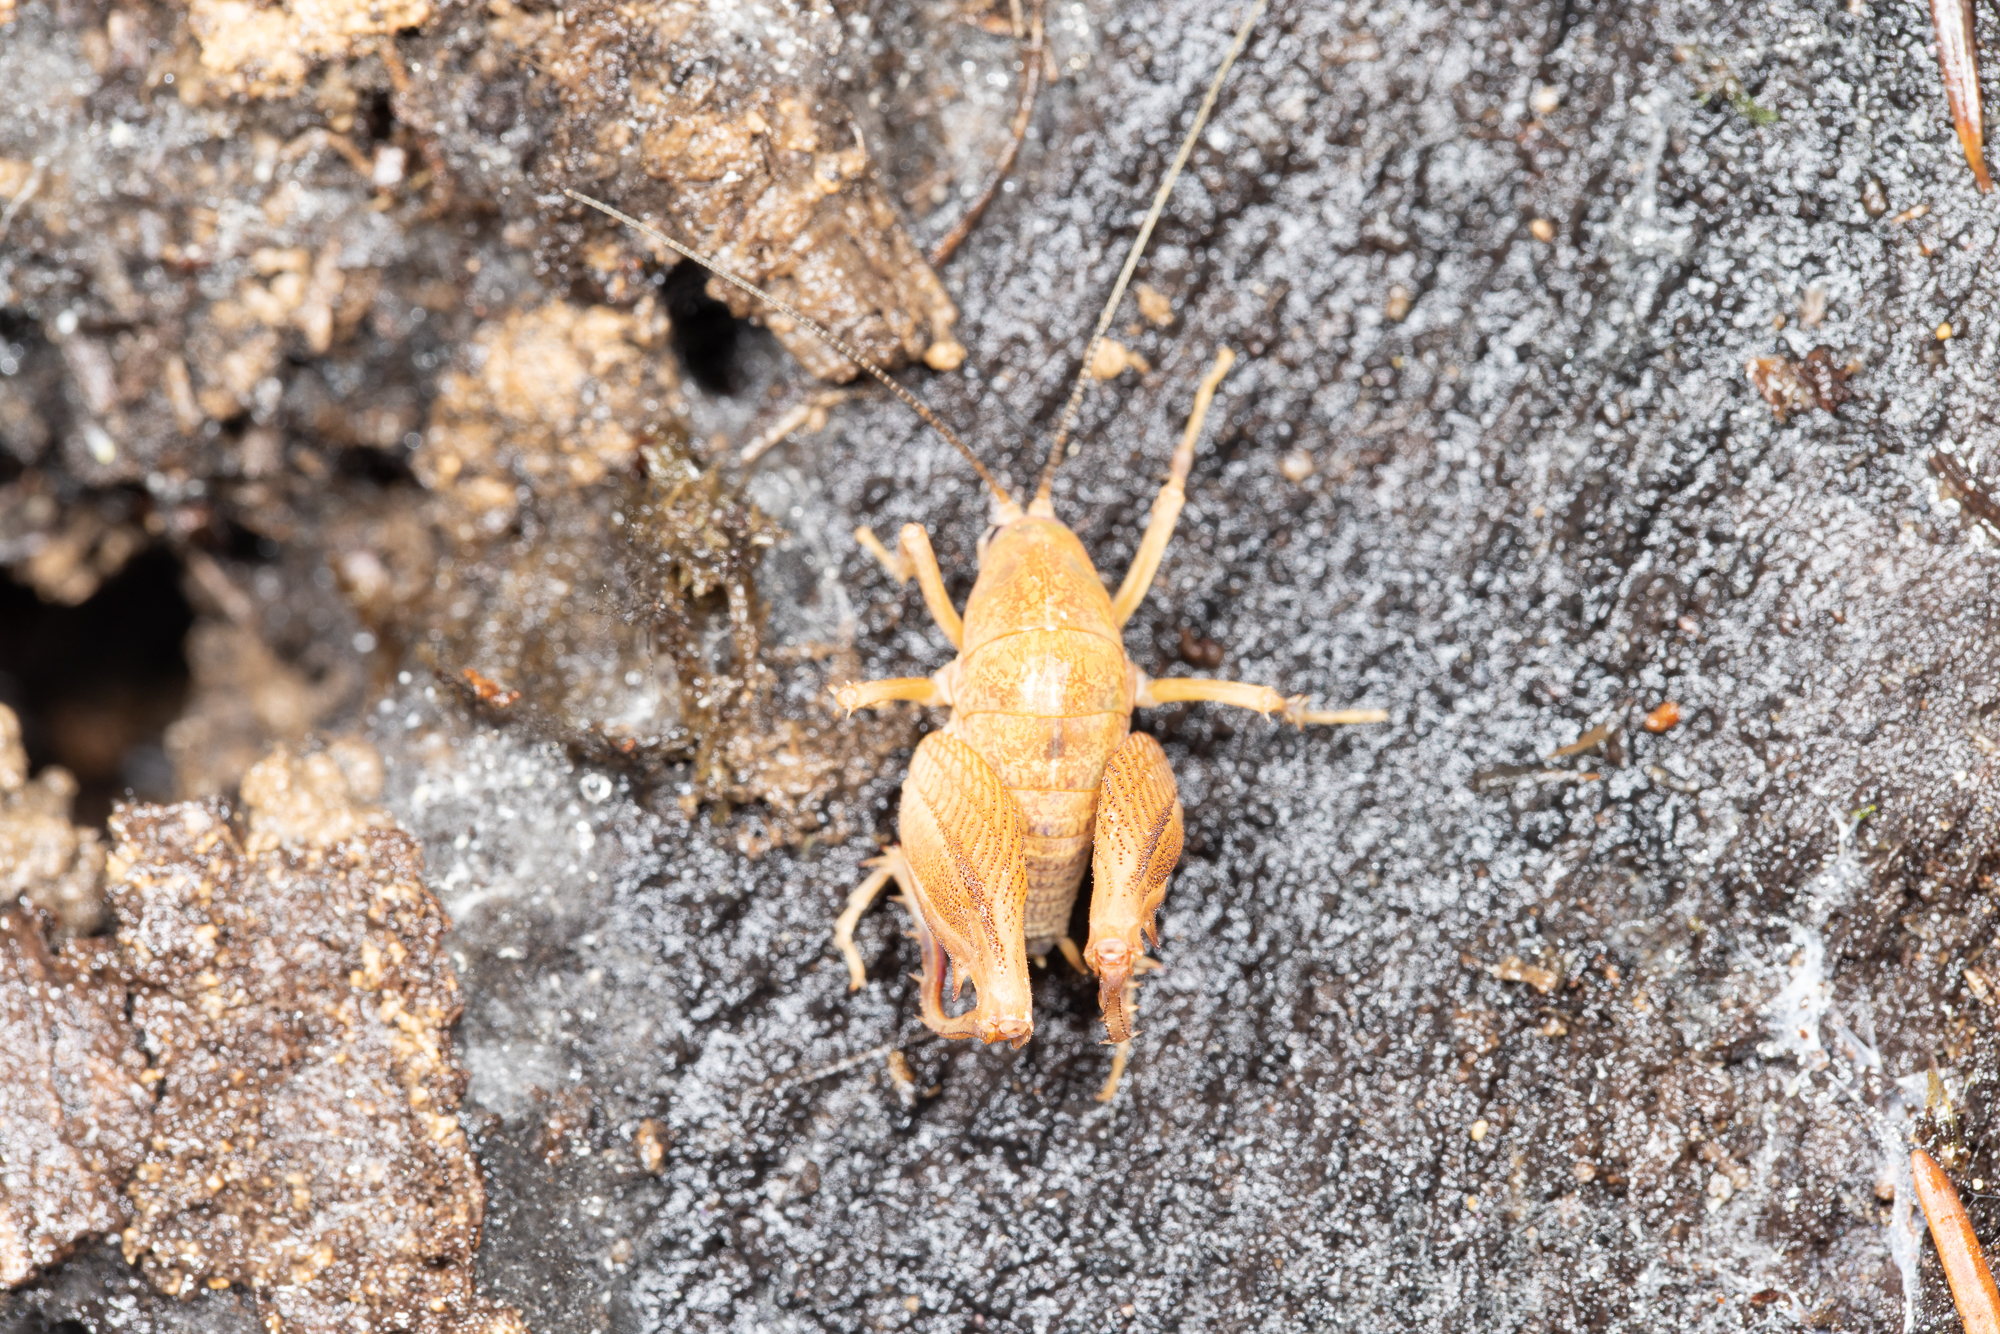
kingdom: Animalia
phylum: Arthropoda
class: Insecta
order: Orthoptera
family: Rhaphidophoridae
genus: Pristoceuthophilus
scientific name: Pristoceuthophilus
